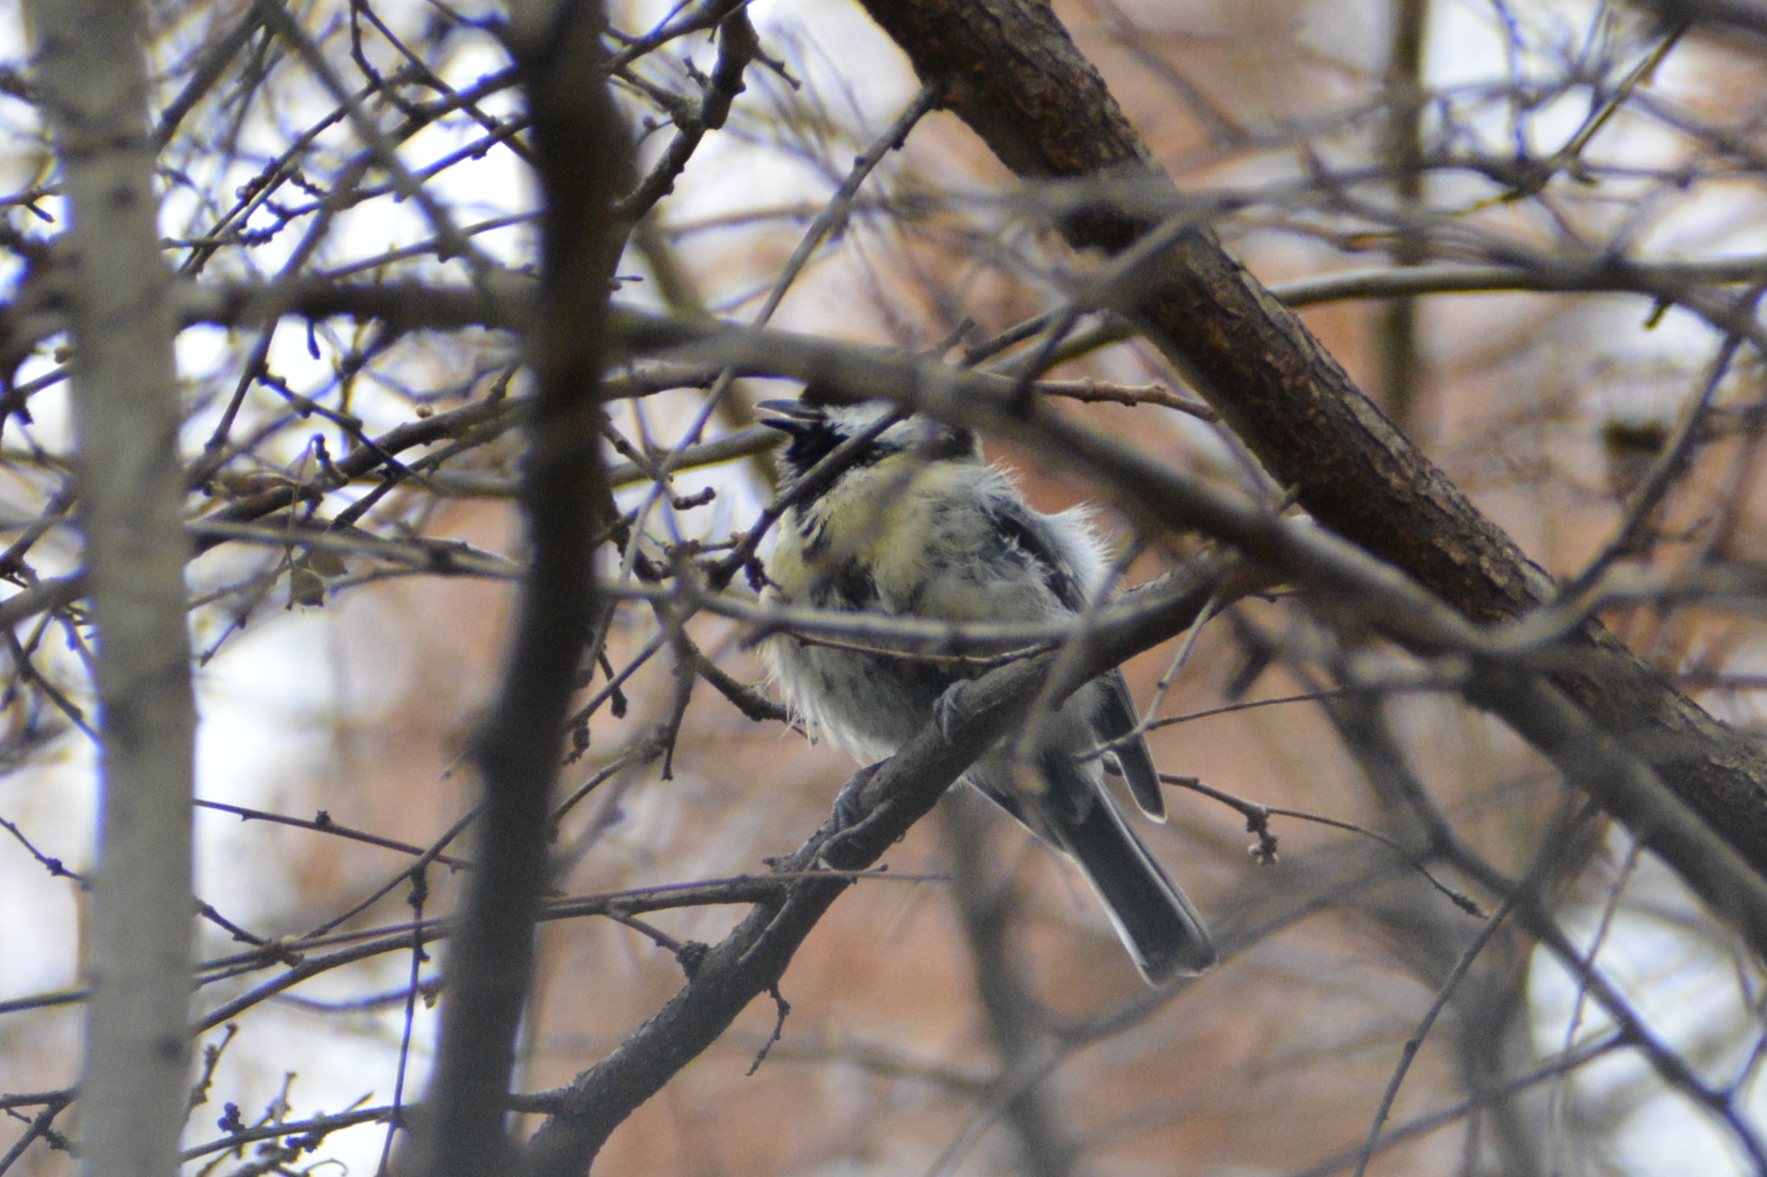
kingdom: Animalia
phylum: Chordata
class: Aves
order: Passeriformes
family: Paridae
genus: Parus
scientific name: Parus major
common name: Great tit
